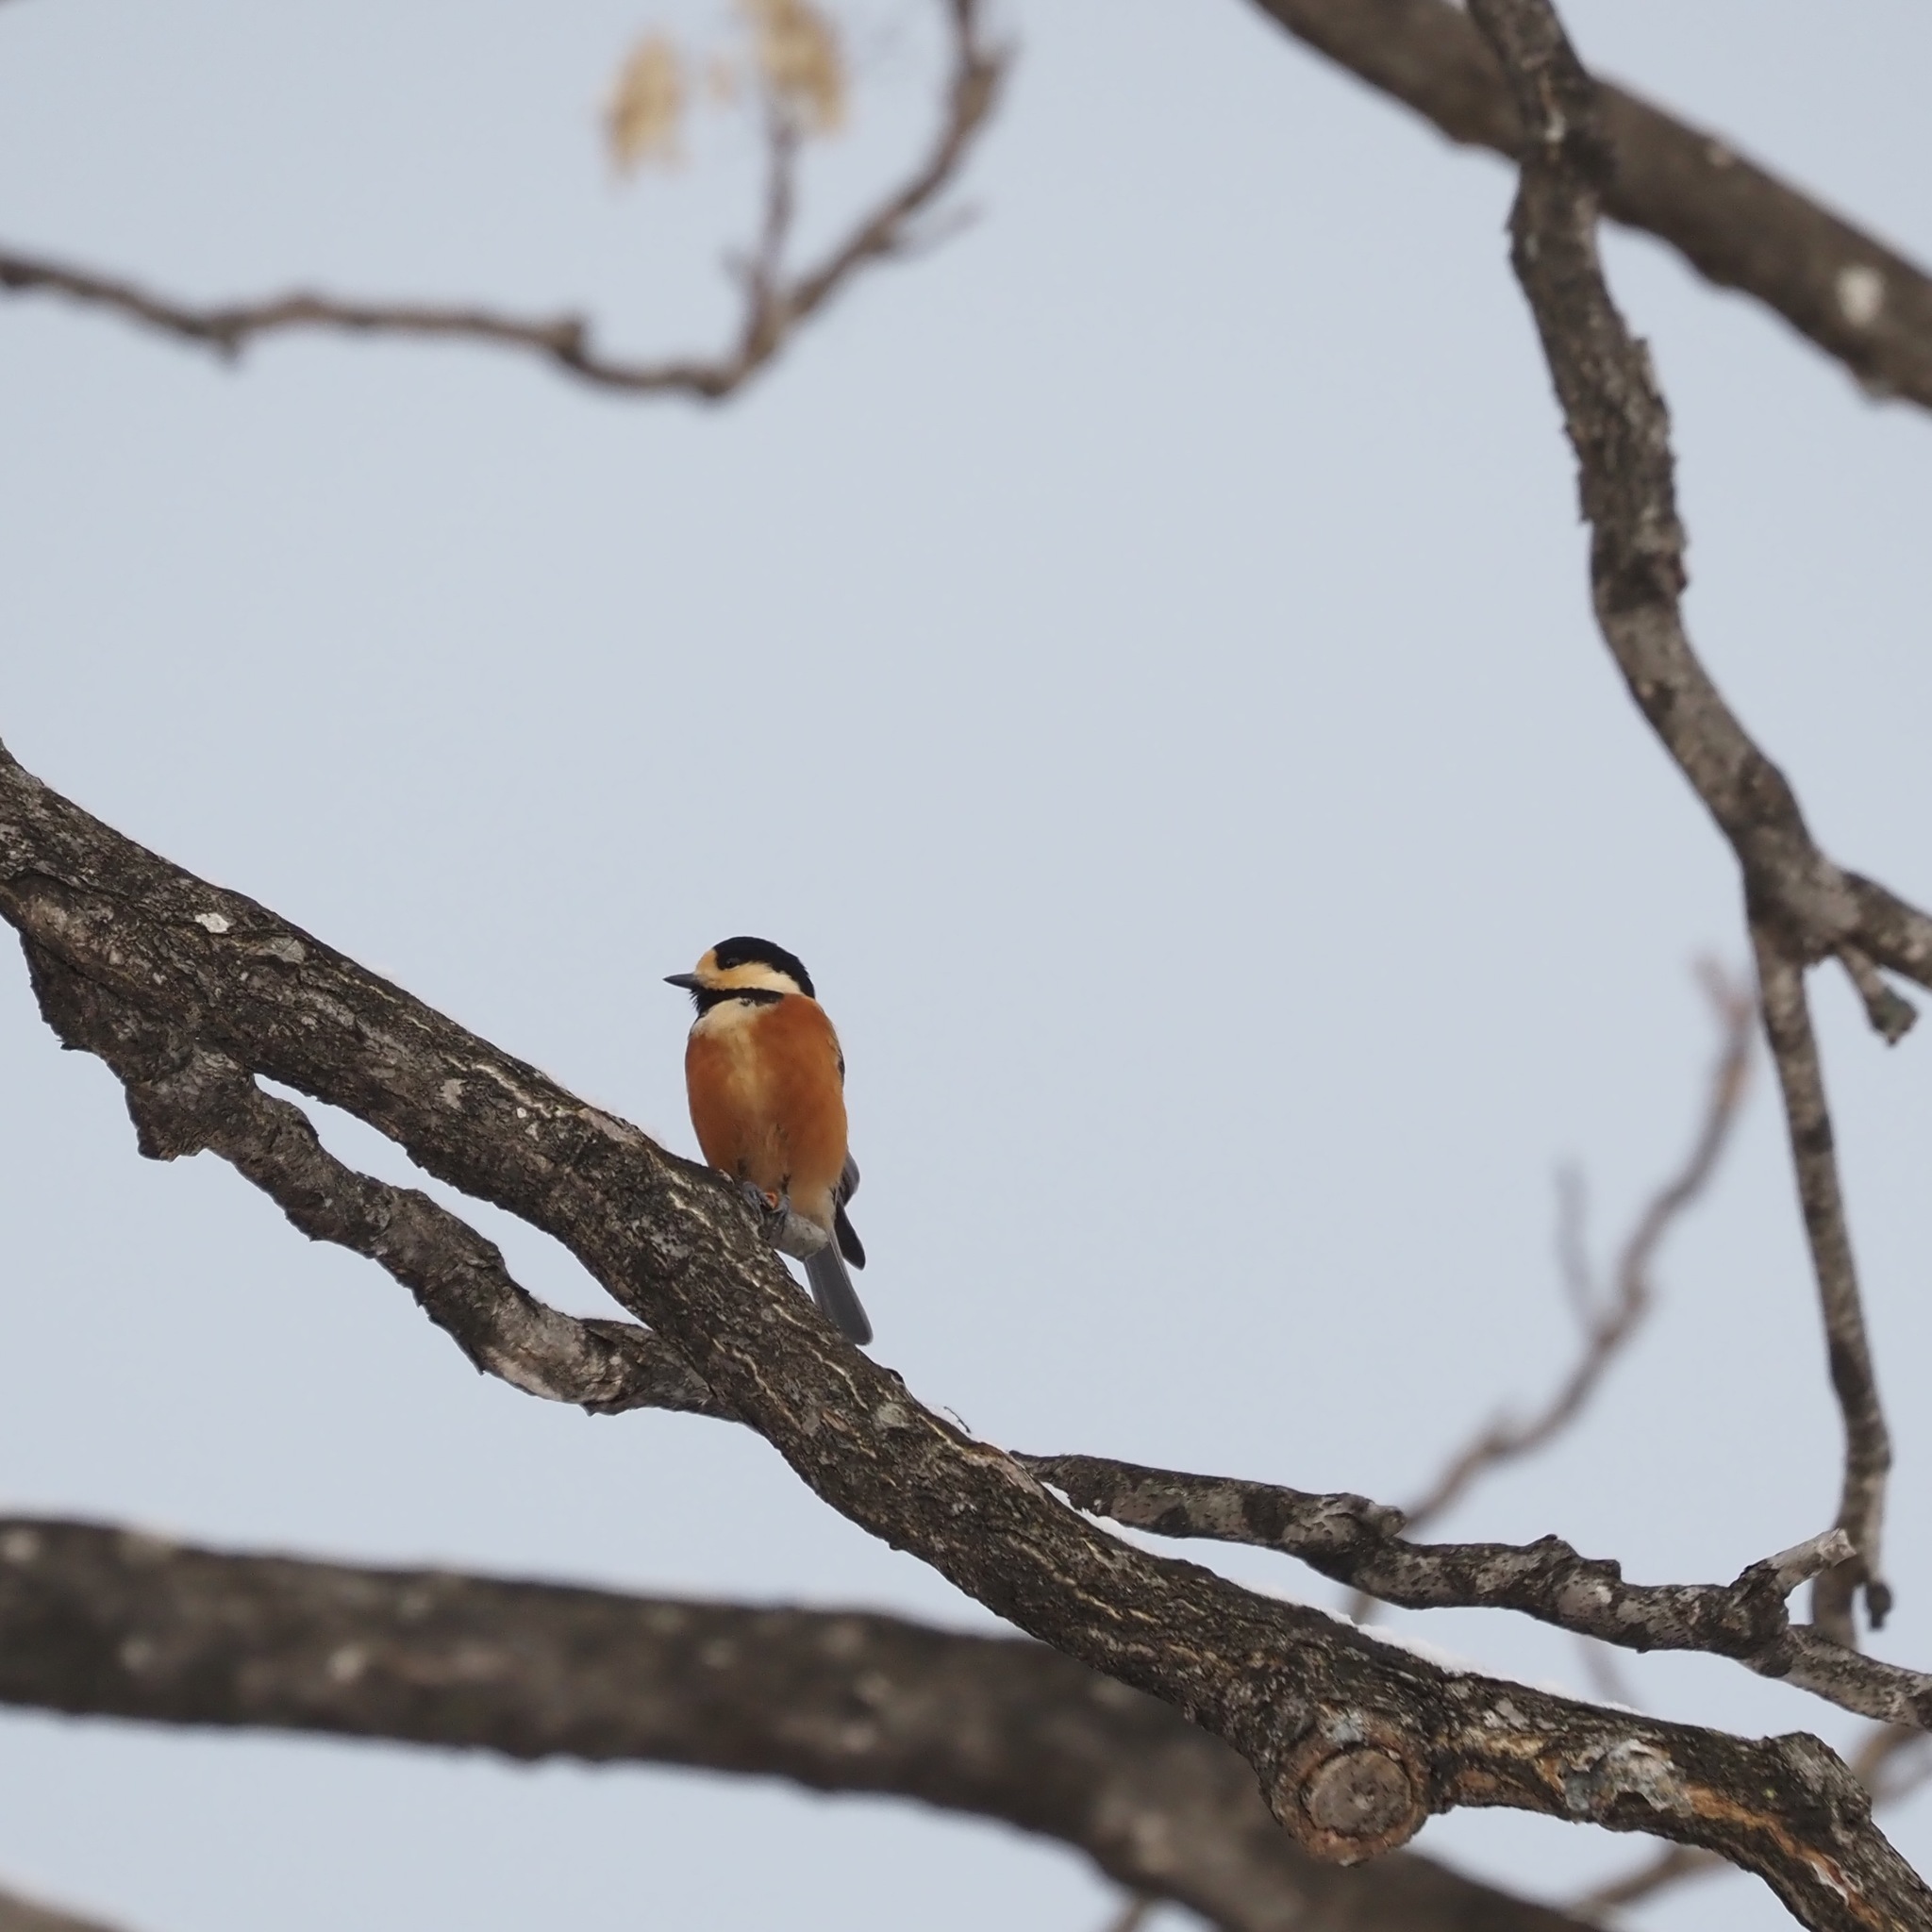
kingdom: Animalia
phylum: Chordata
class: Aves
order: Passeriformes
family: Paridae
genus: Poecile
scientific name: Poecile varius
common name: Varied tit
